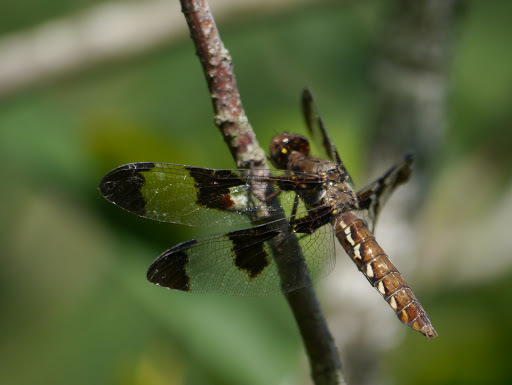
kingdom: Animalia
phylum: Arthropoda
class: Insecta
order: Odonata
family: Libellulidae
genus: Plathemis
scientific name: Plathemis lydia
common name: Common whitetail
